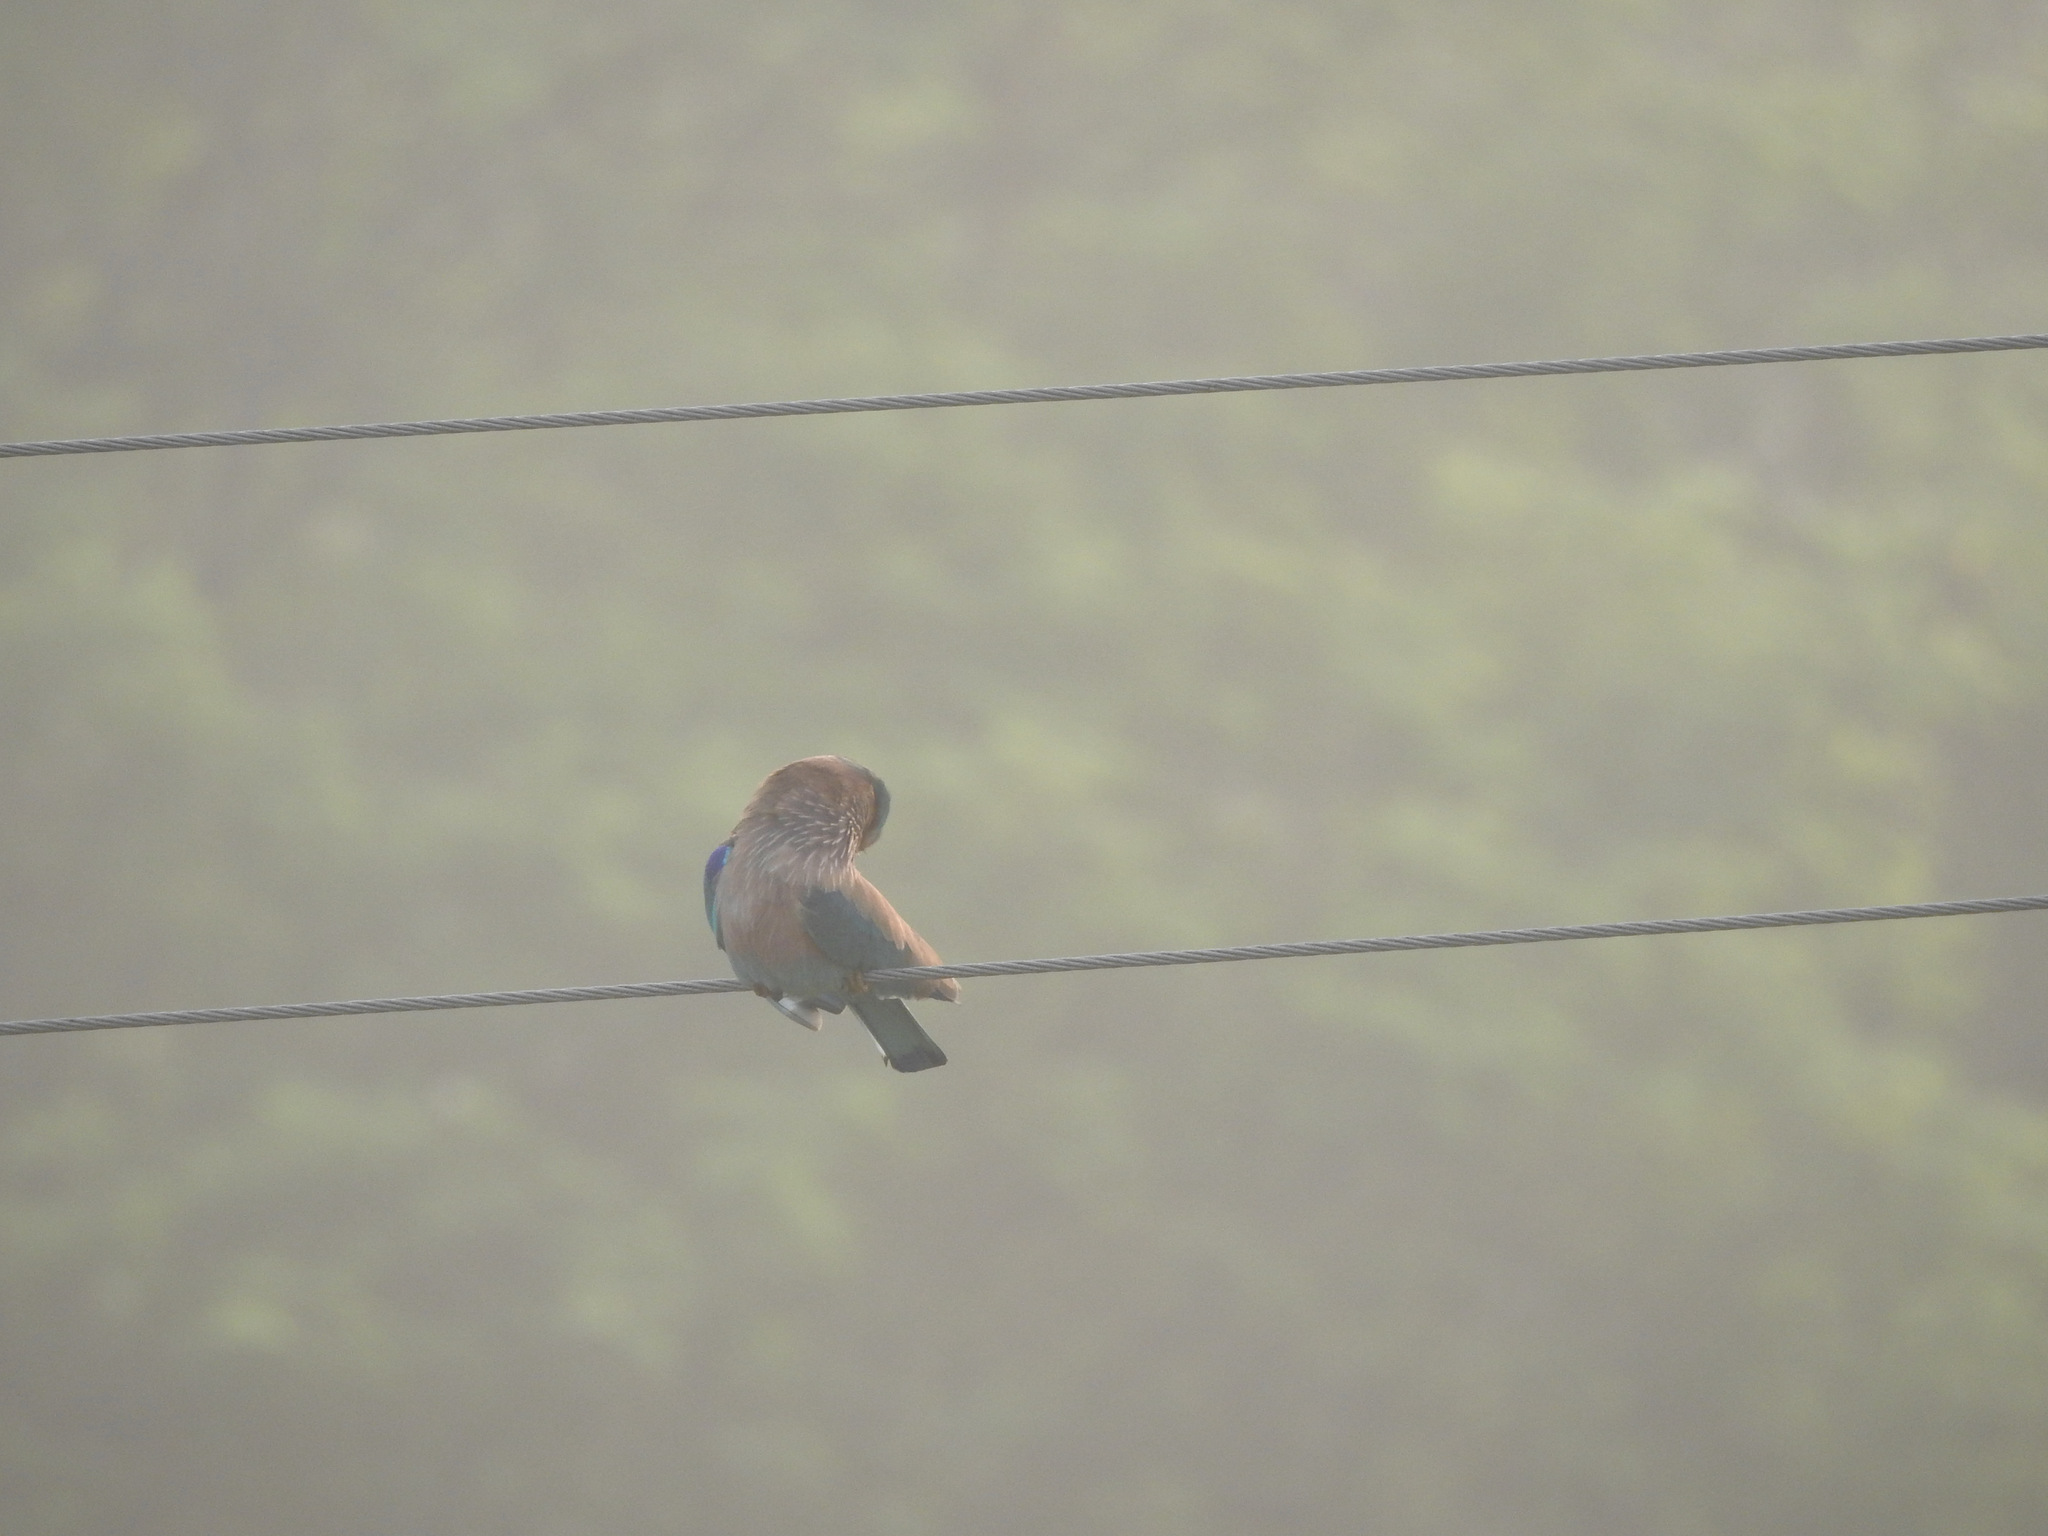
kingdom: Animalia
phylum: Chordata
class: Aves
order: Coraciiformes
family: Coraciidae
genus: Coracias
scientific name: Coracias benghalensis
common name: Indian roller
